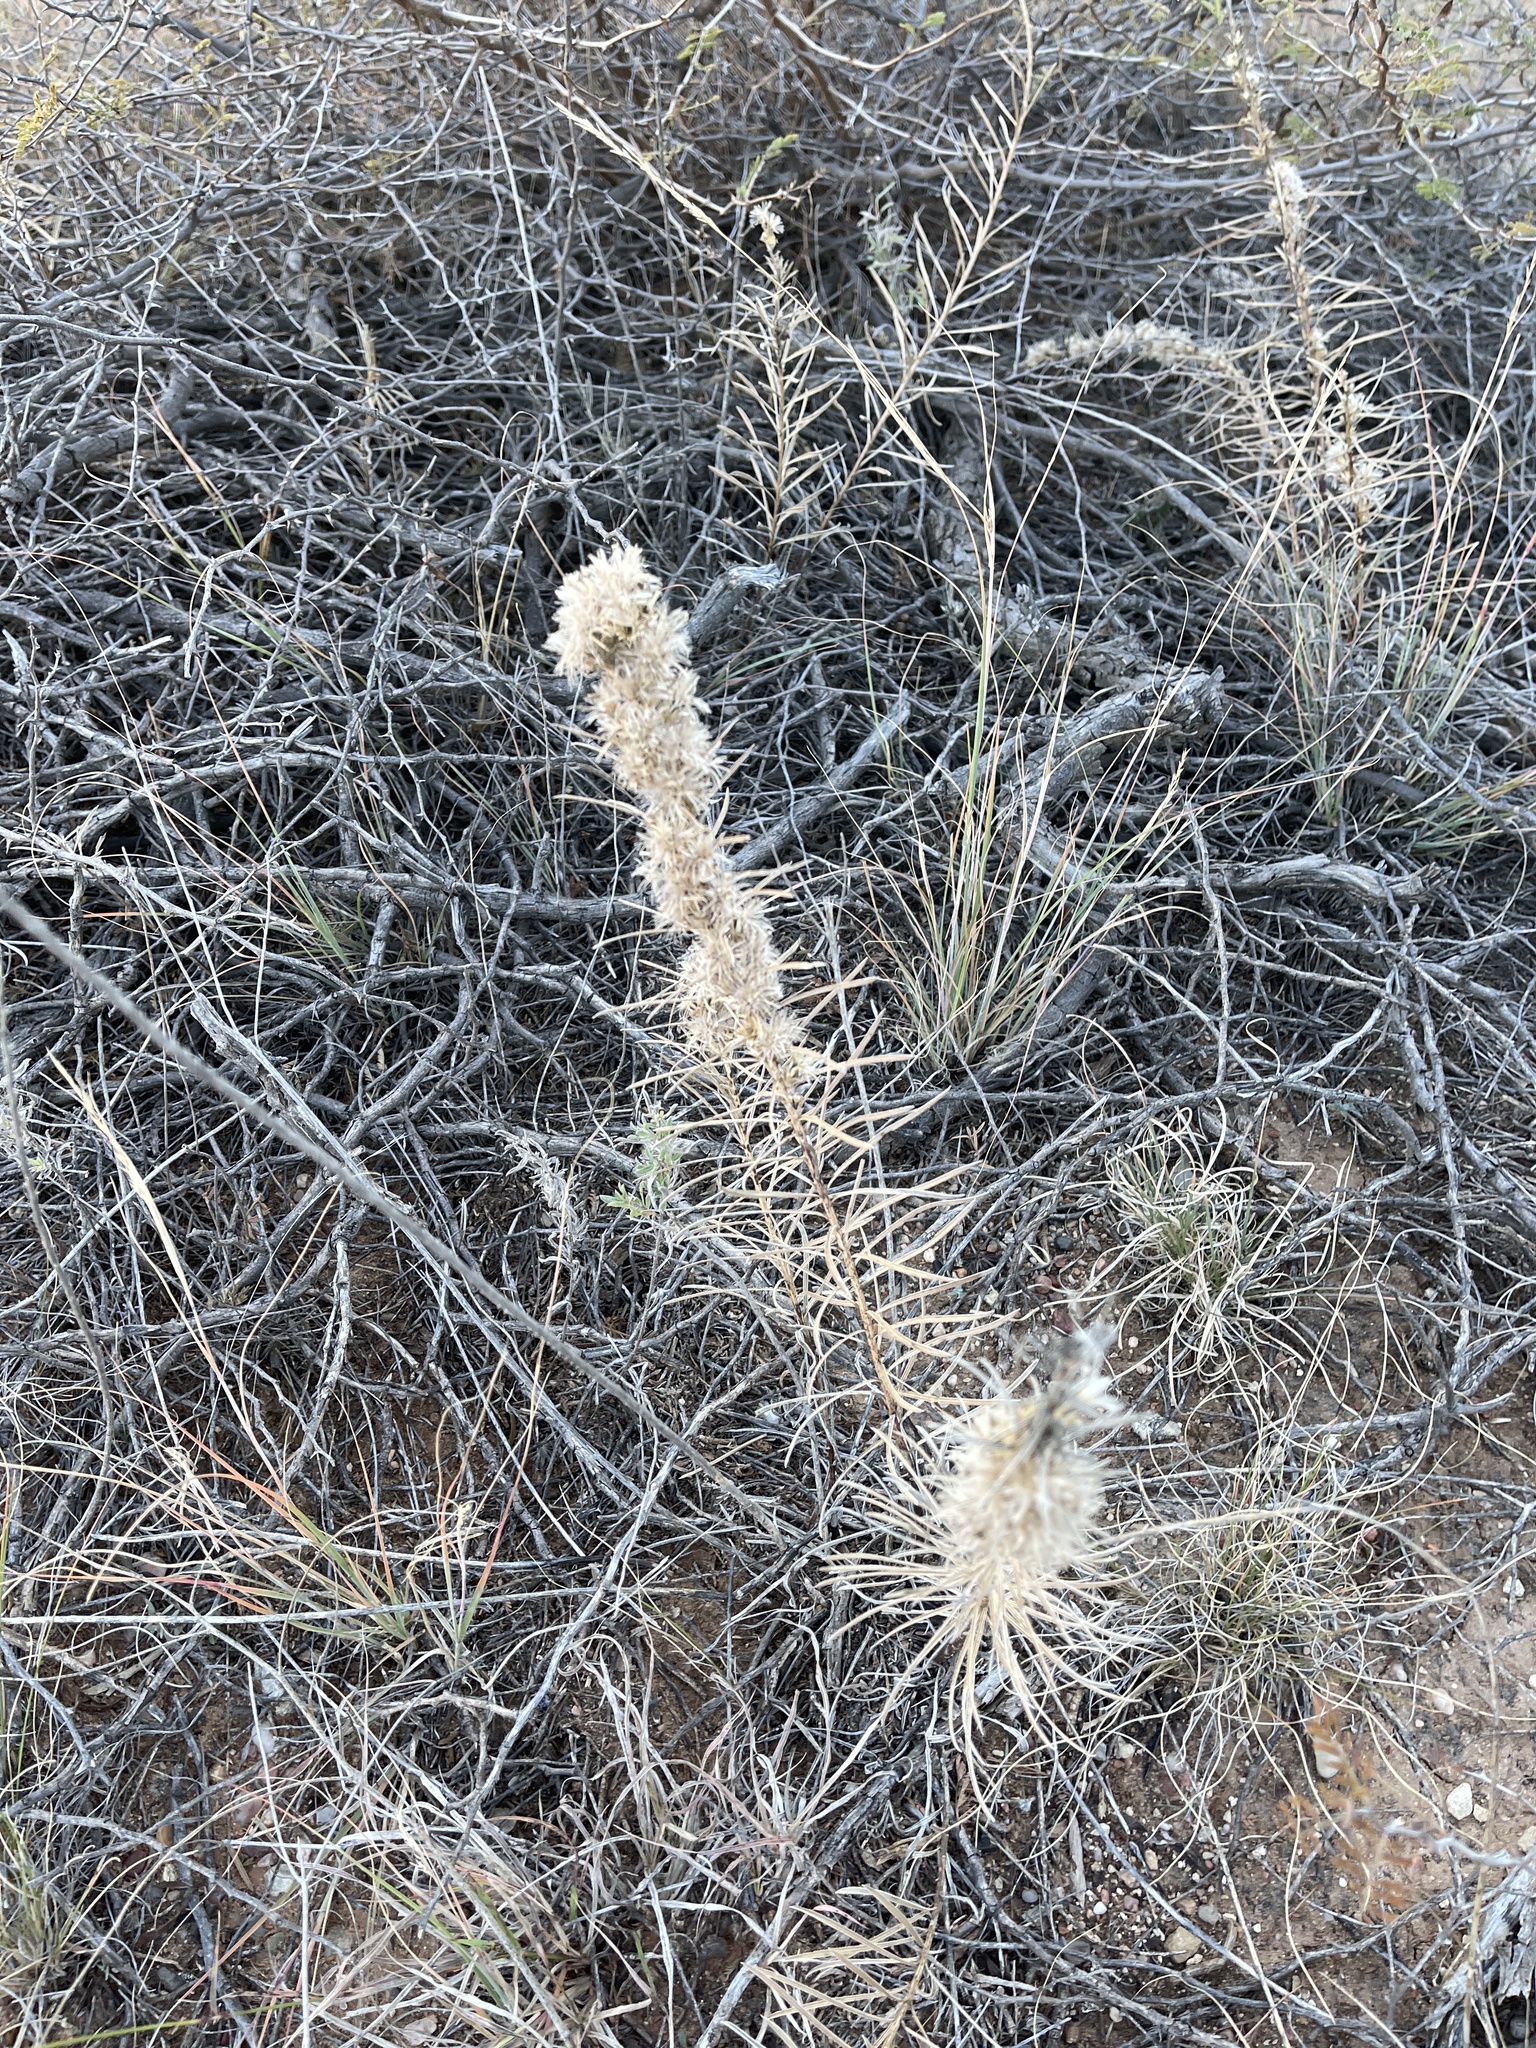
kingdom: Plantae
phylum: Tracheophyta
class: Magnoliopsida
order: Asterales
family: Asteraceae
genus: Liatris
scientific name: Liatris punctata
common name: Dotted gayfeather
